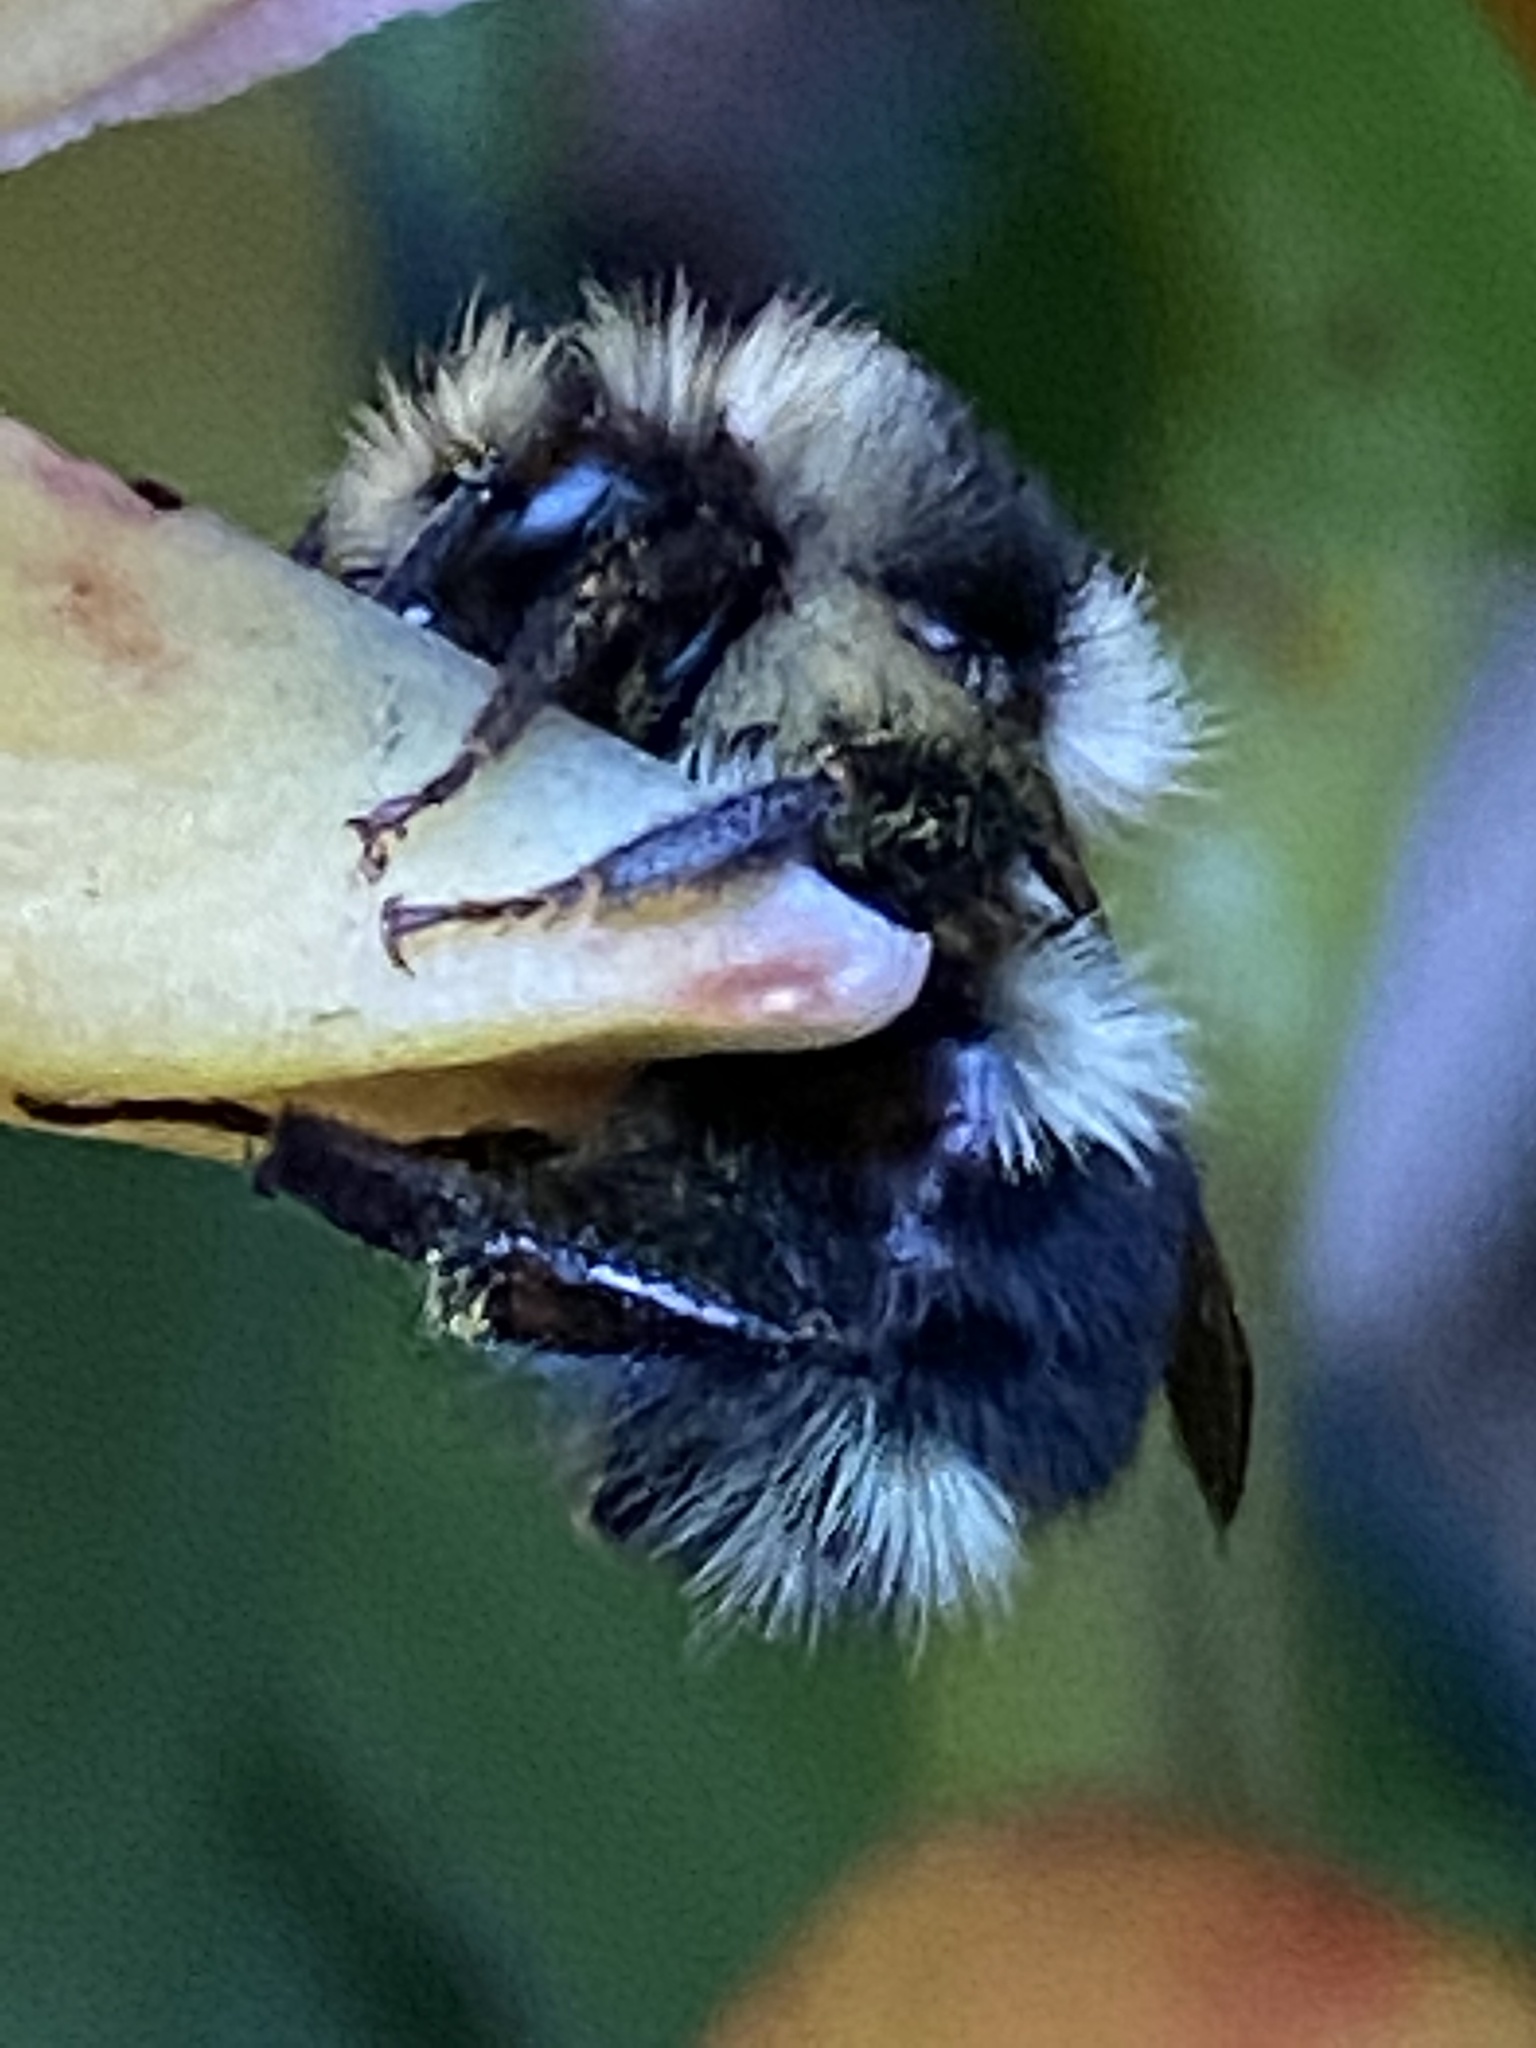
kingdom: Animalia
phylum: Arthropoda
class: Insecta
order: Hymenoptera
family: Apidae
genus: Bombus
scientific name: Bombus melanopygus
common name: Black tail bumble bee
